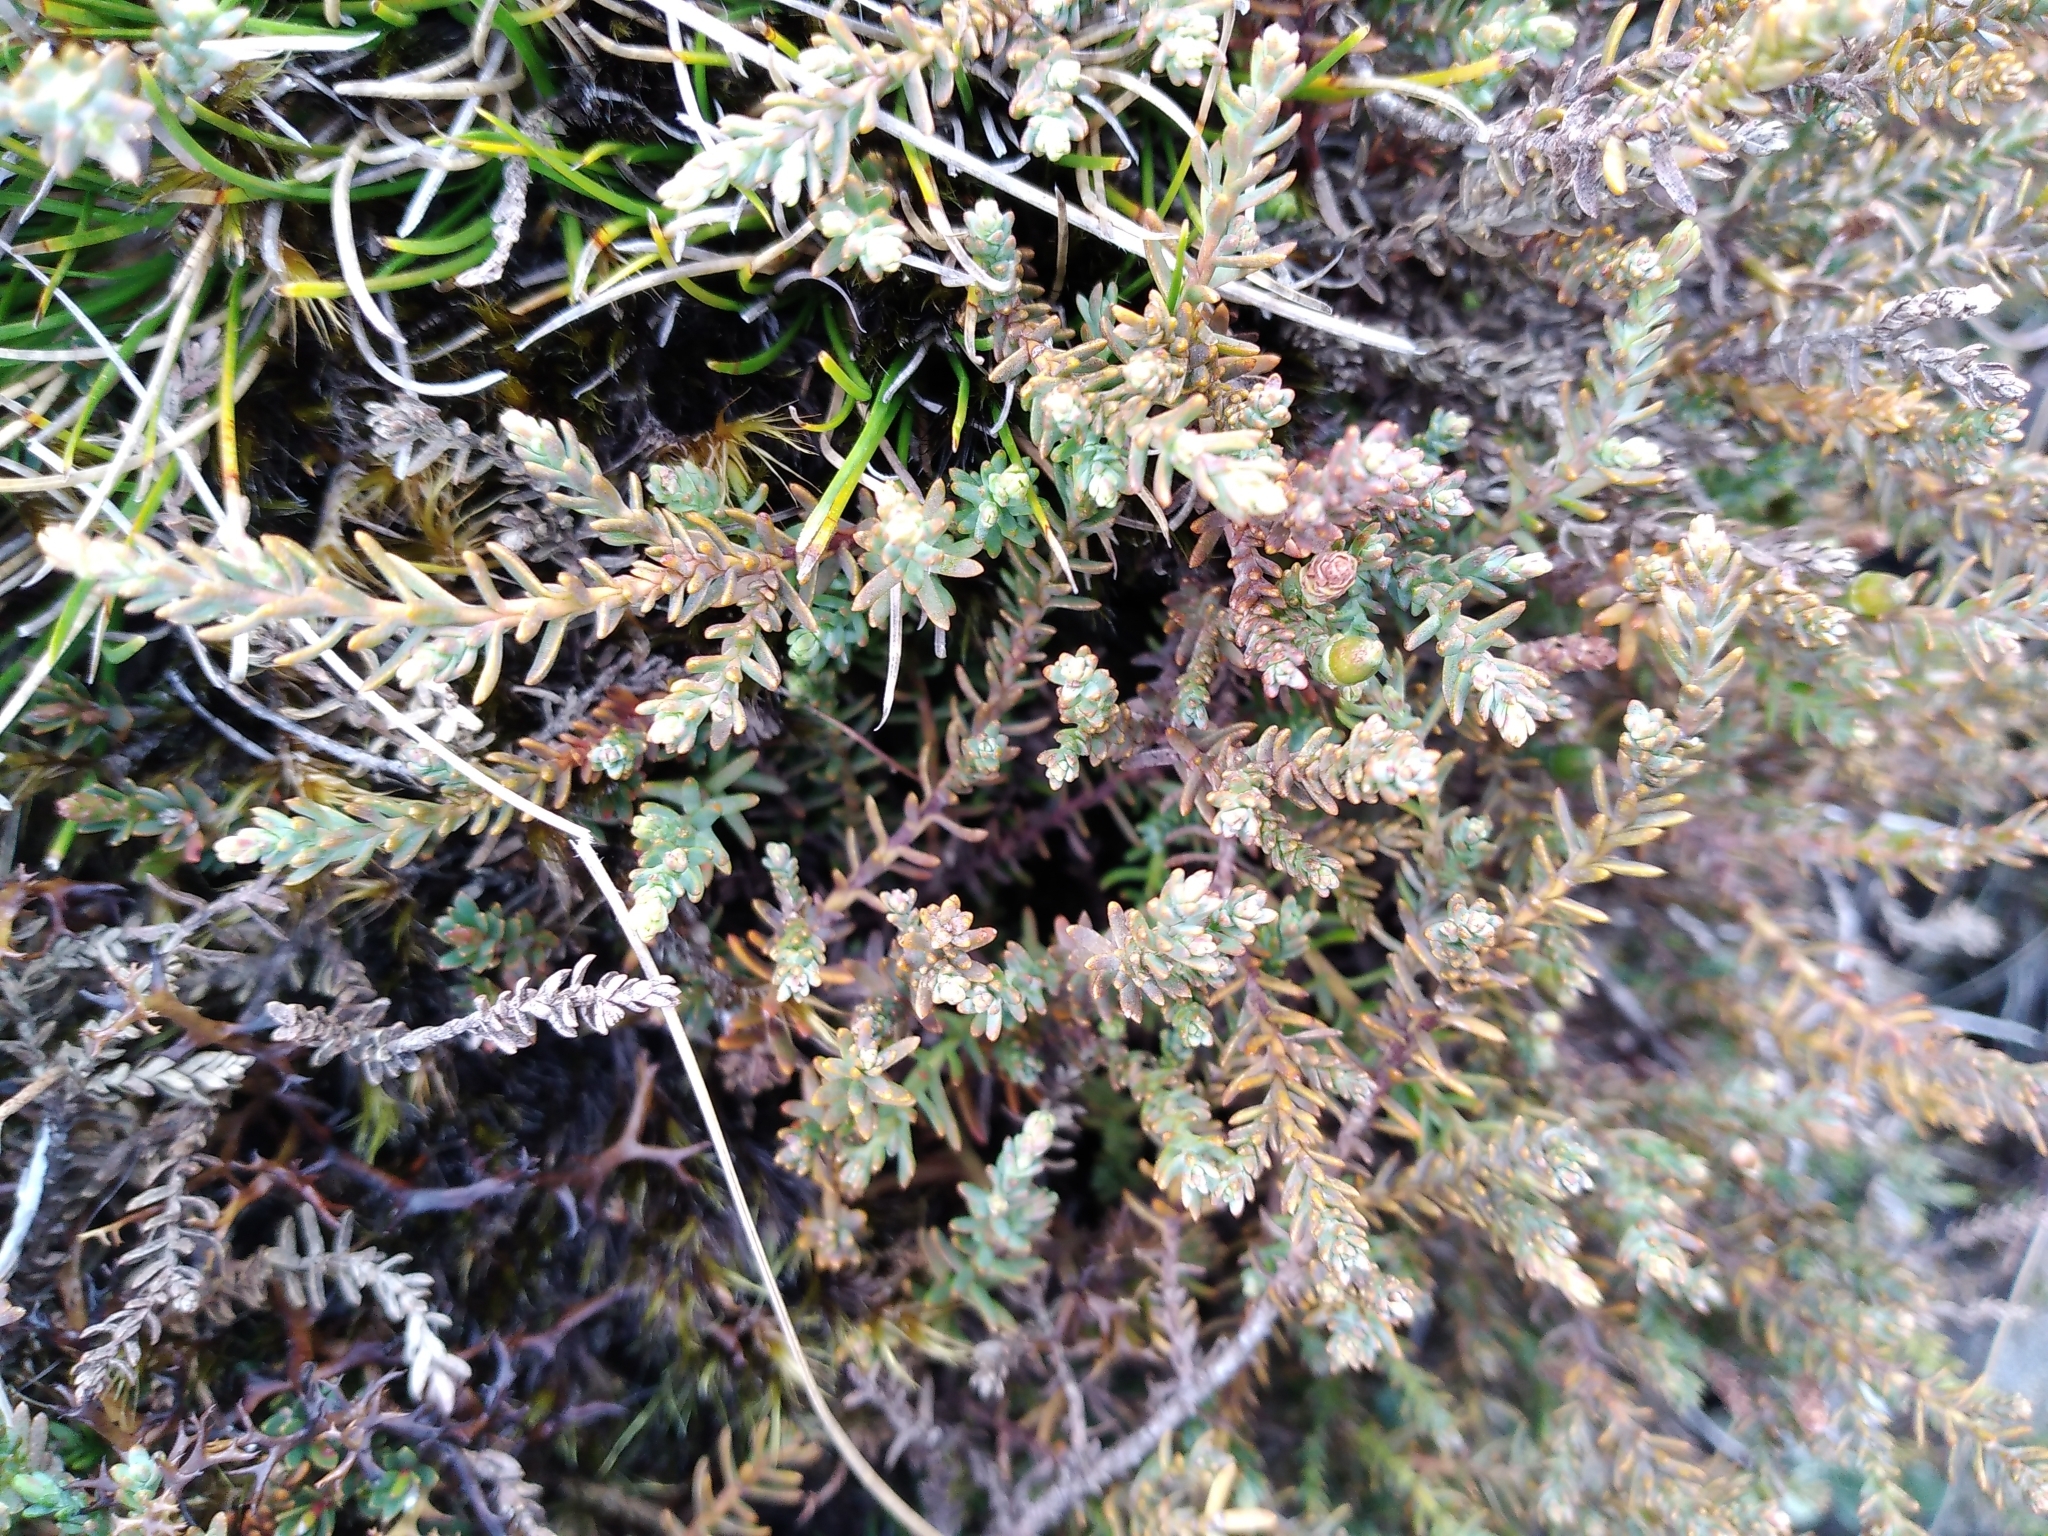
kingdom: Plantae
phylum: Tracheophyta
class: Pinopsida
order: Pinales
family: Podocarpaceae
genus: Lepidothamnus
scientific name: Lepidothamnus laxifolius
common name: Pygmy pine
